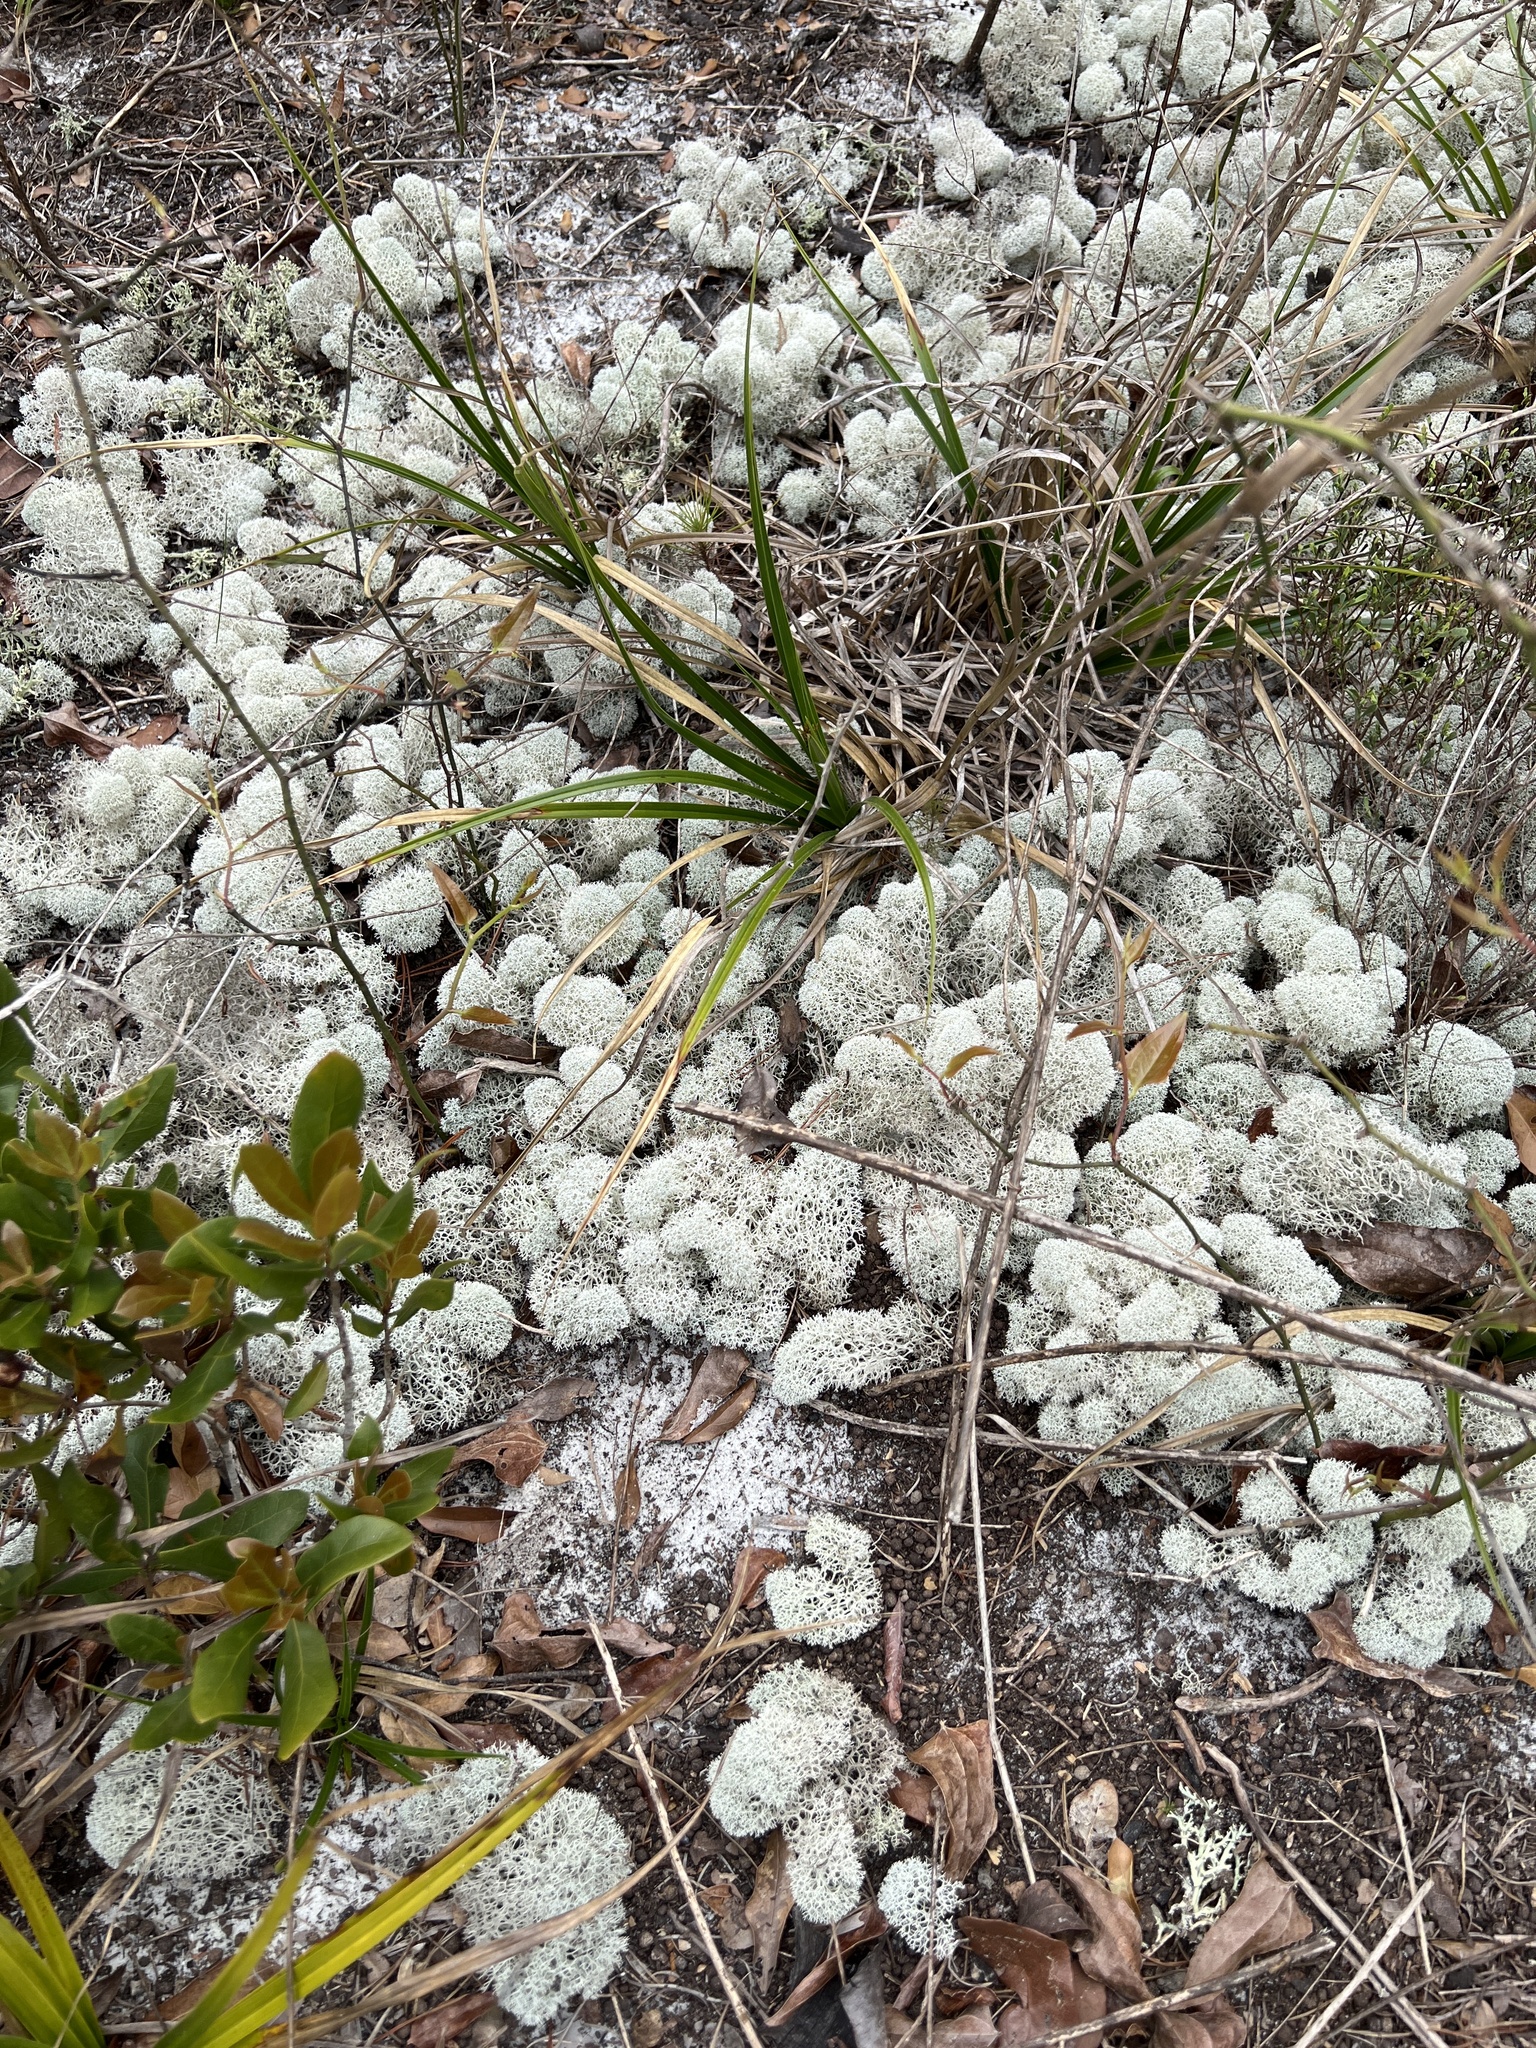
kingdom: Fungi
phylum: Ascomycota
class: Lecanoromycetes
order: Lecanorales
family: Cladoniaceae
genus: Cladonia
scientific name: Cladonia evansii
